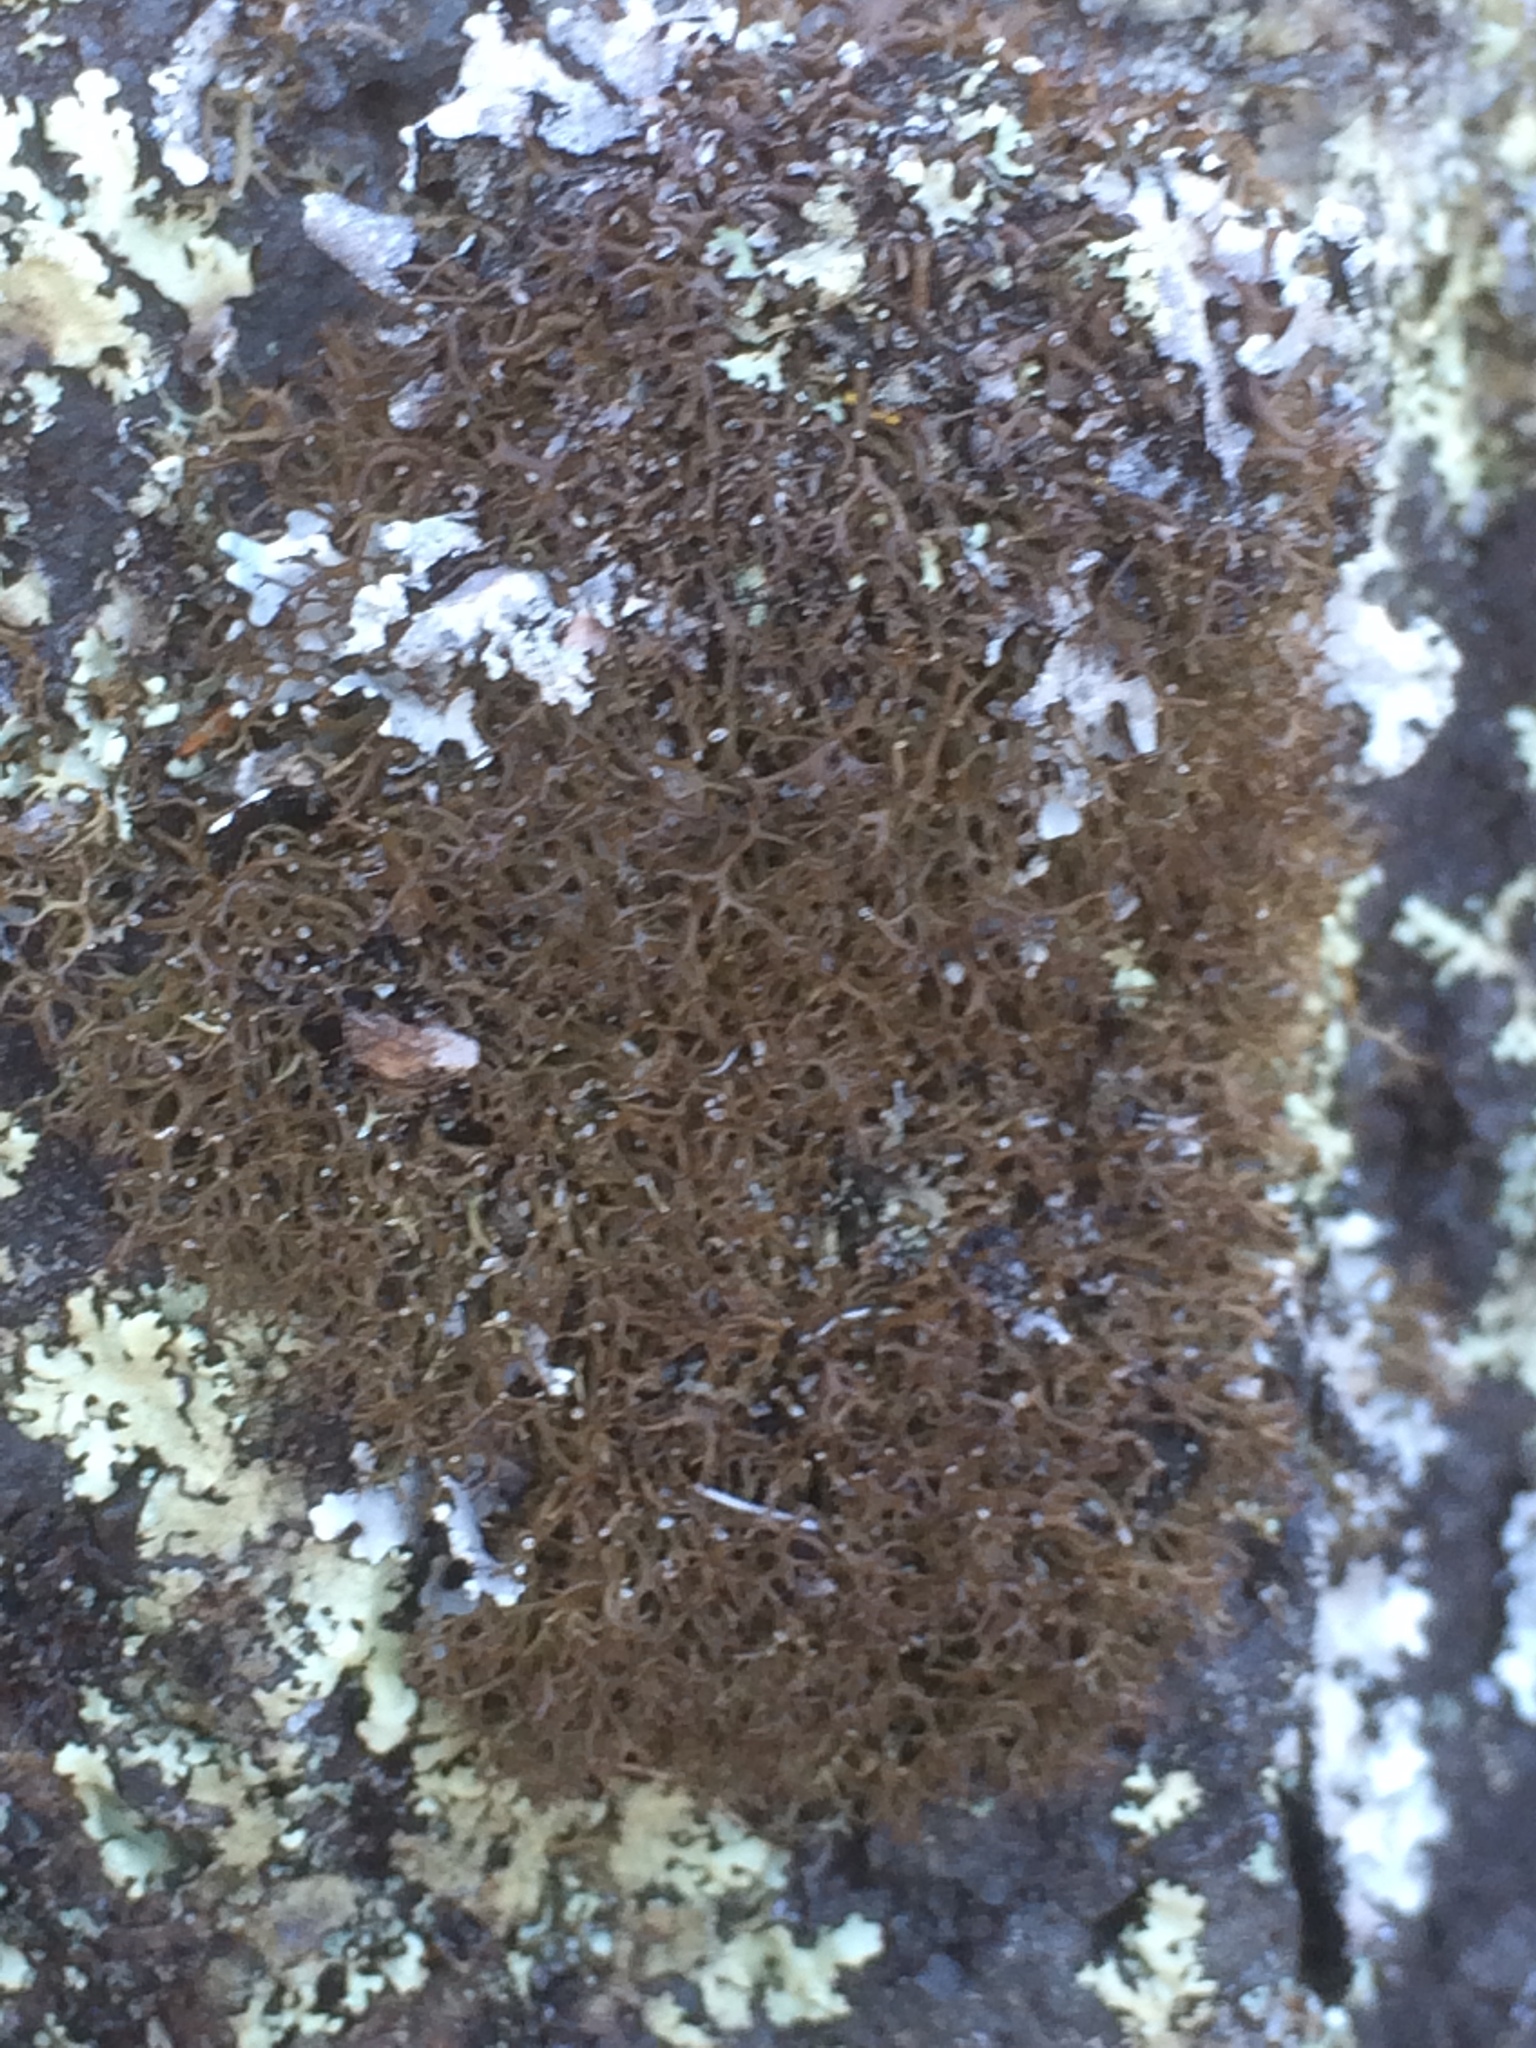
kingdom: Fungi
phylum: Ascomycota
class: Lecanoromycetes
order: Lecanorales
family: Cladoniaceae
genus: Cladia
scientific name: Cladia gorgonea
